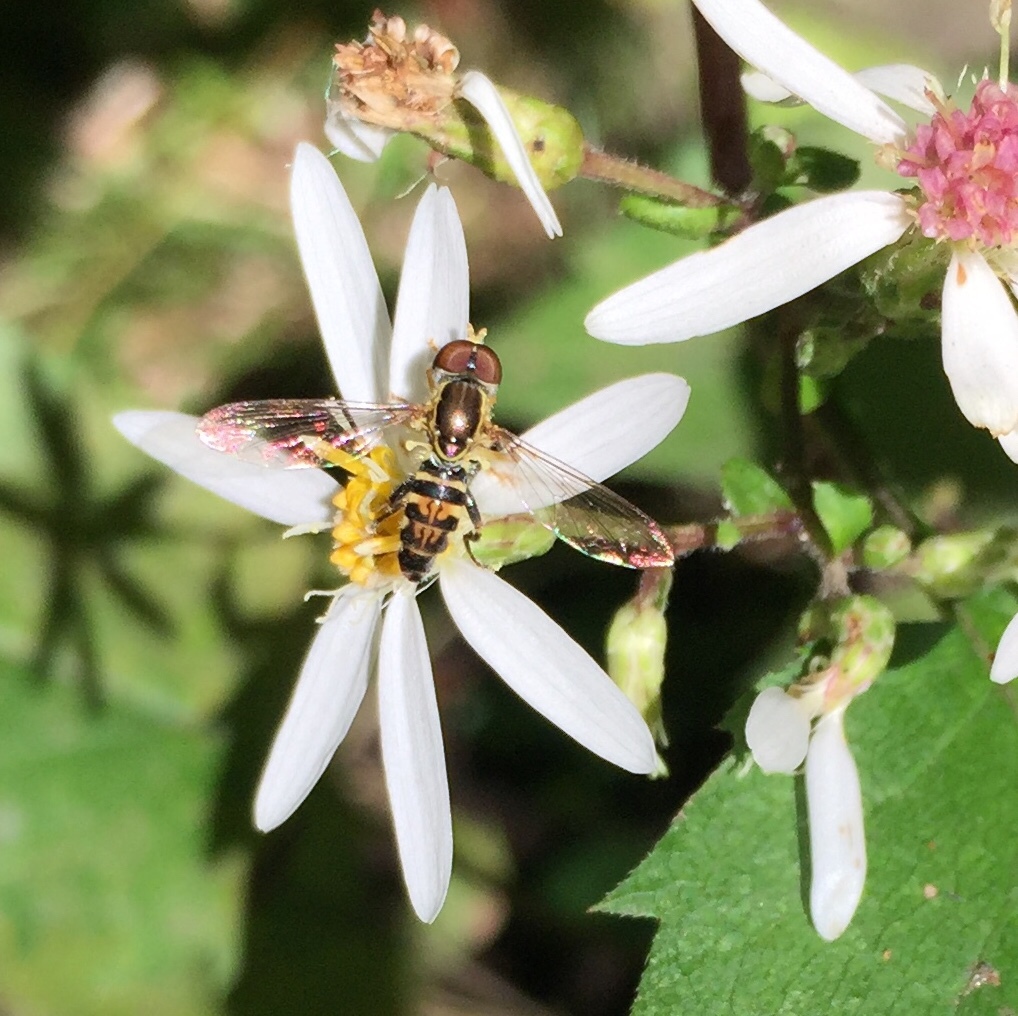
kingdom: Animalia
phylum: Arthropoda
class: Insecta
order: Diptera
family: Syrphidae
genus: Toxomerus
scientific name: Toxomerus geminatus
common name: Eastern calligrapher
